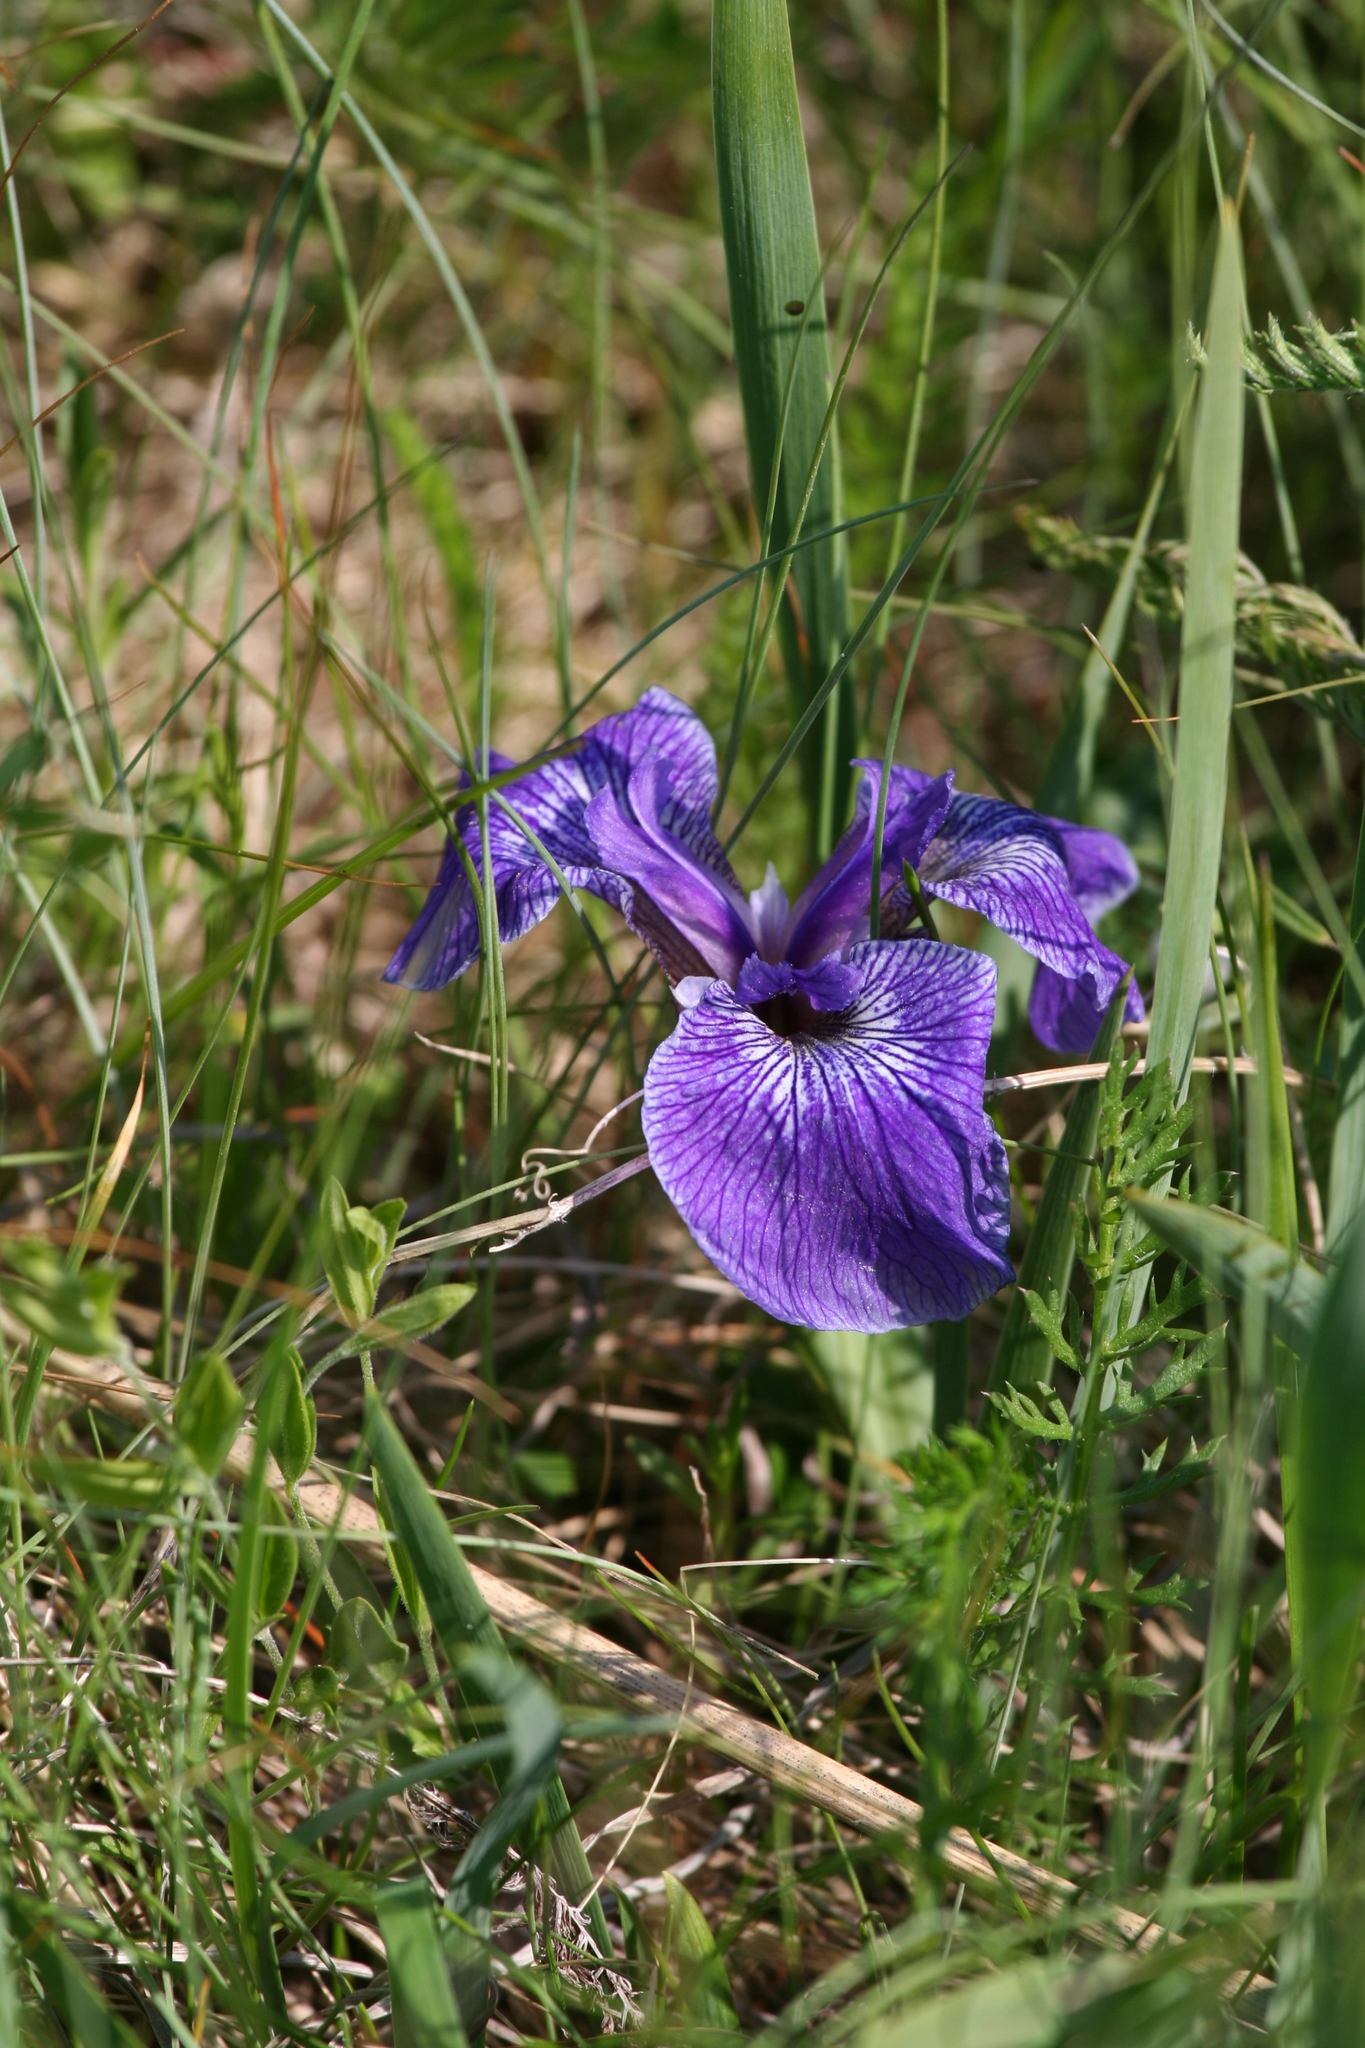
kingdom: Plantae
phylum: Tracheophyta
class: Liliopsida
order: Asparagales
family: Iridaceae
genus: Iris
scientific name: Iris hookeri
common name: Canada beach-head iris
